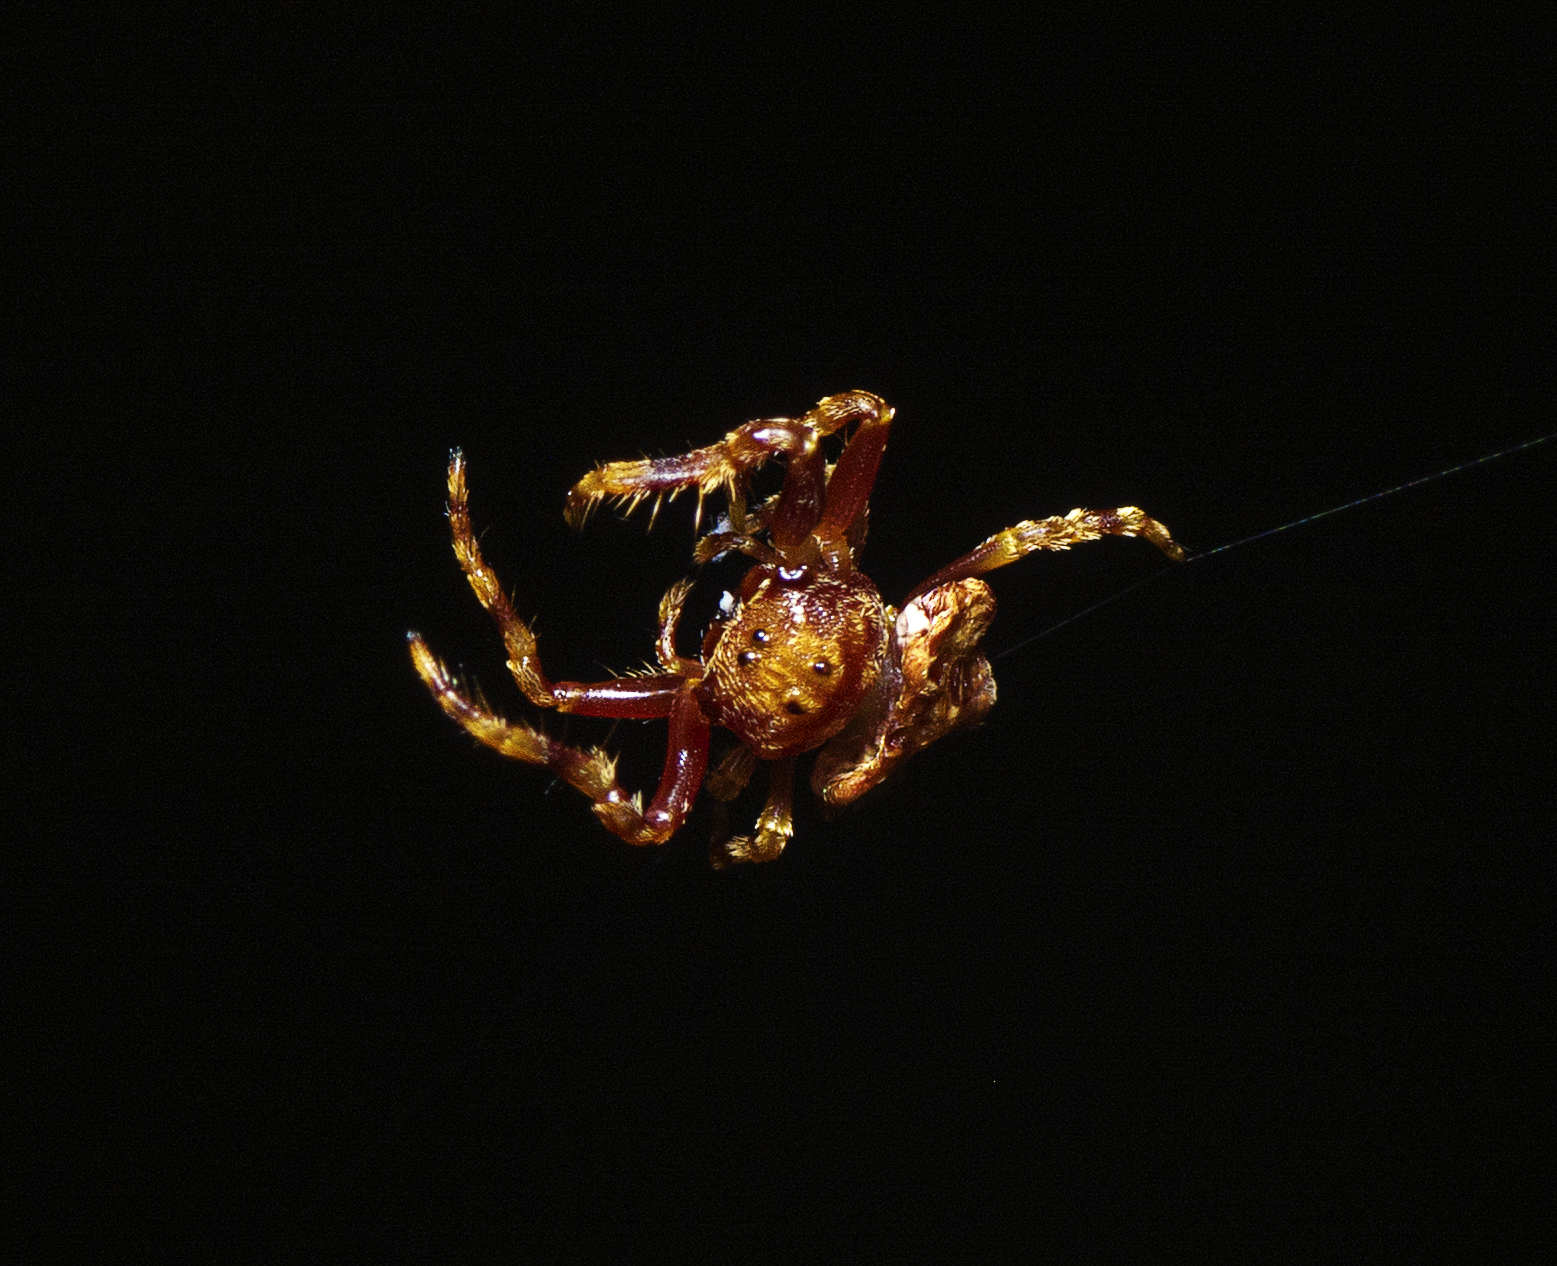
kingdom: Animalia
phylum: Arthropoda
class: Arachnida
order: Araneae
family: Arkyidae
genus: Arkys
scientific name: Arkys curtulus
